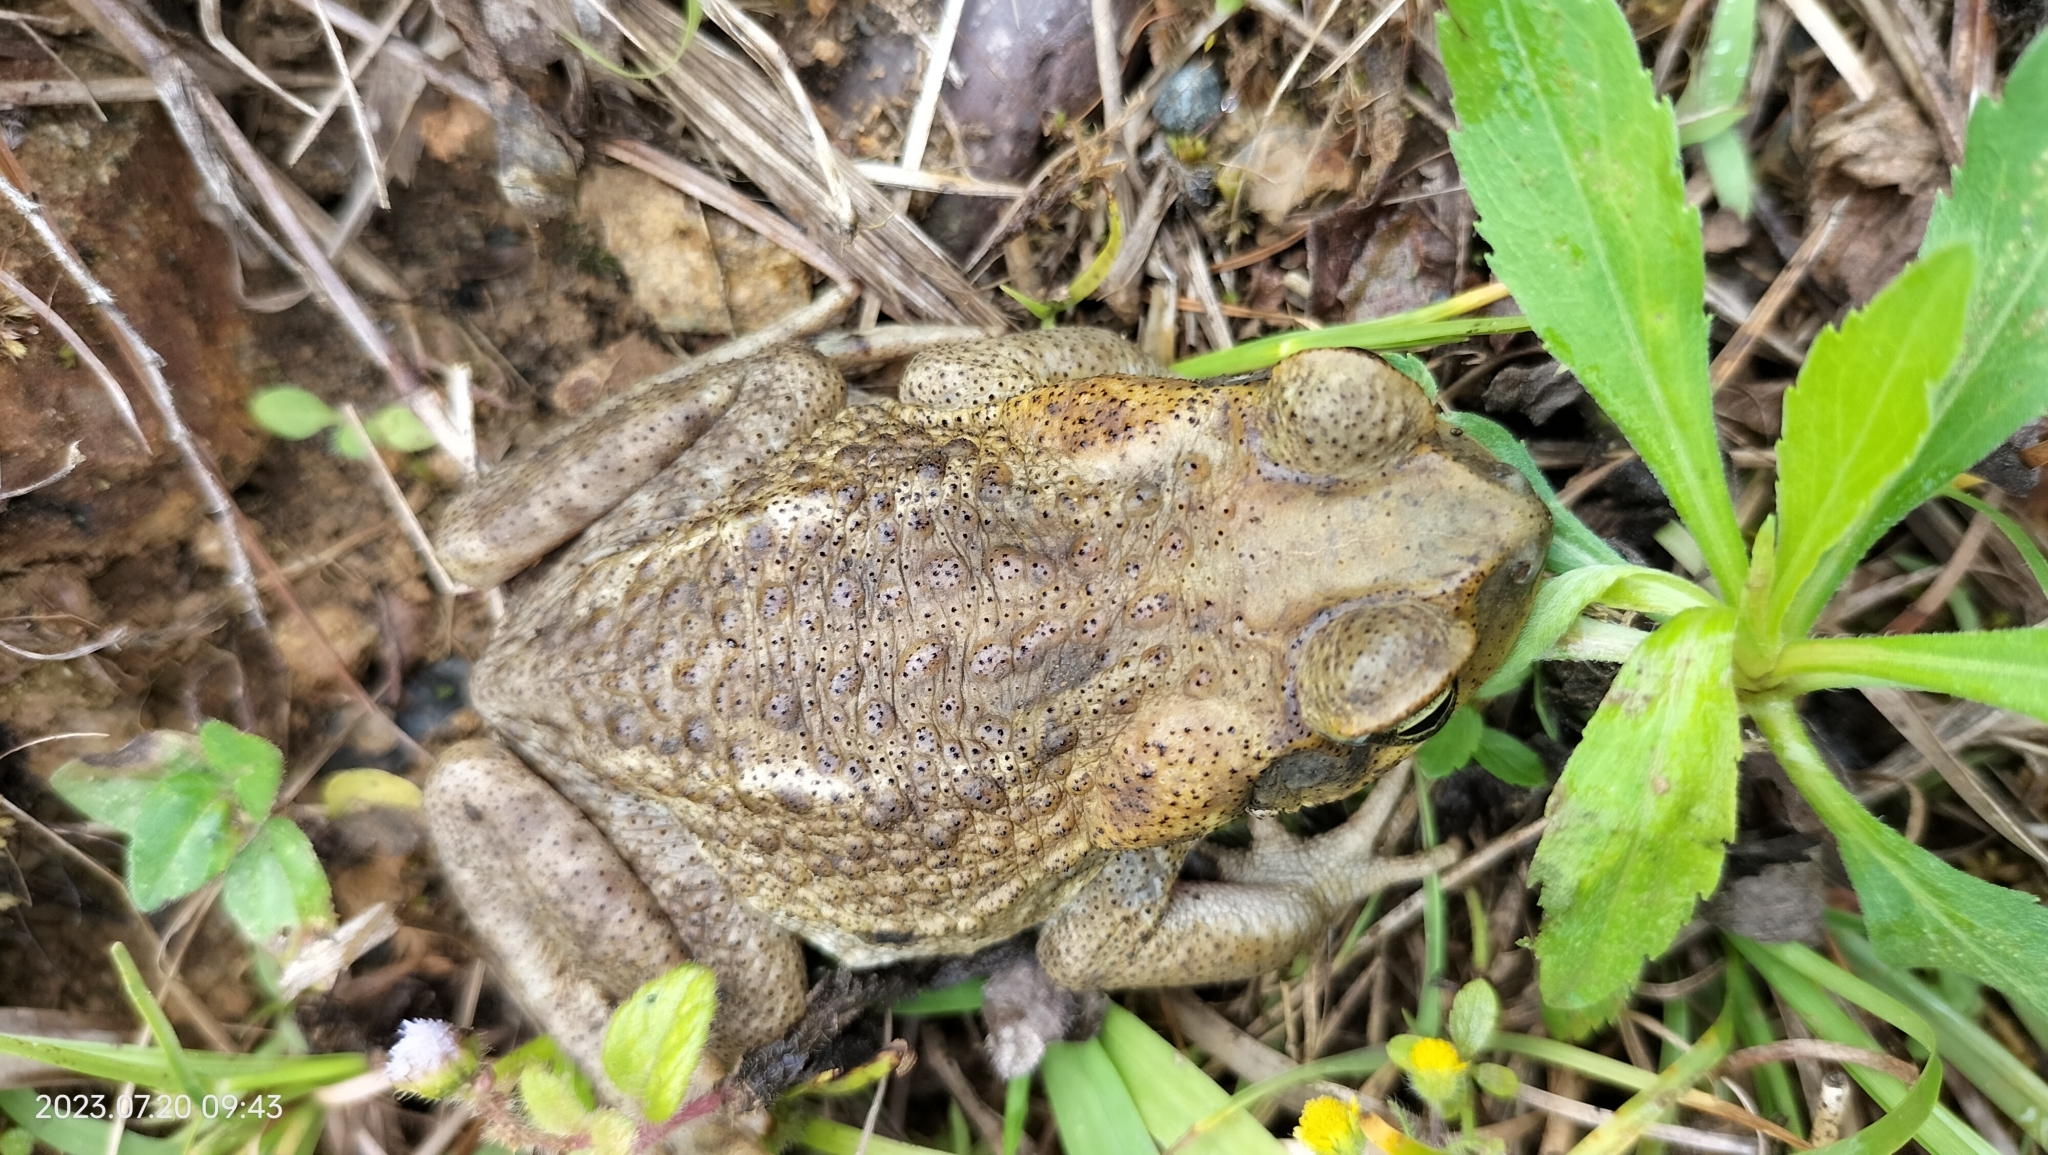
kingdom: Animalia
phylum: Chordata
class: Amphibia
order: Anura
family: Bufonidae
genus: Rhinella
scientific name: Rhinella marina
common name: Cane toad
